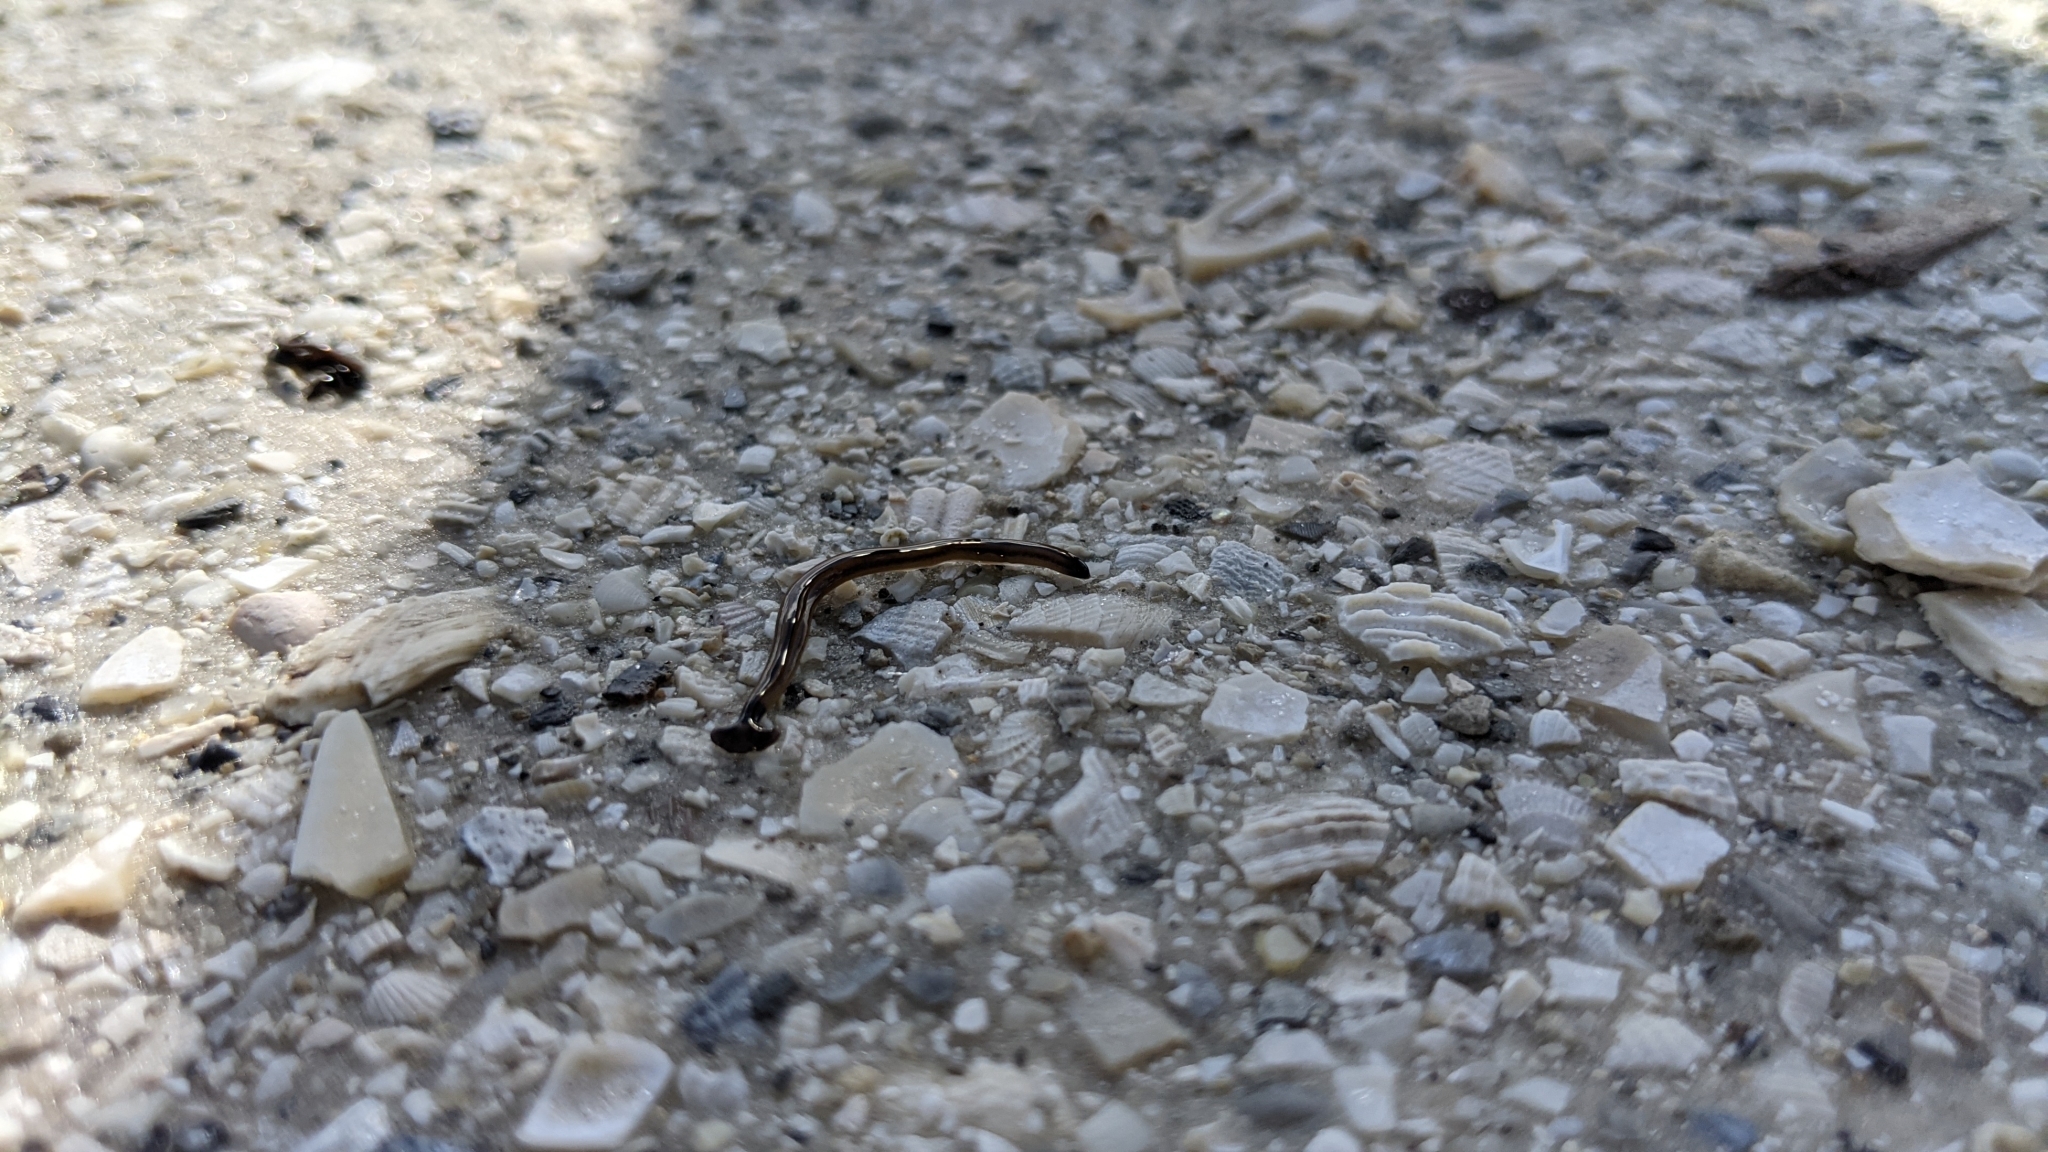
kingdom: Animalia
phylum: Platyhelminthes
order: Tricladida
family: Geoplanidae
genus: Bipalium
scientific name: Bipalium vagum
